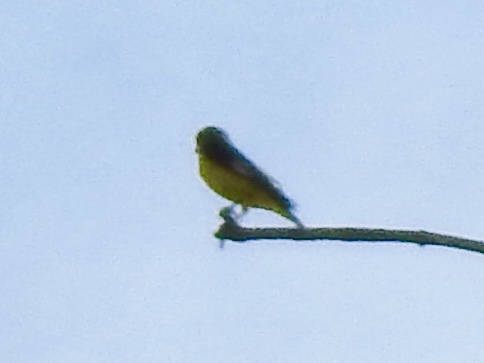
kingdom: Animalia
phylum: Chordata
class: Aves
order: Passeriformes
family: Fringillidae
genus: Spinus
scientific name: Spinus psaltria
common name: Lesser goldfinch
